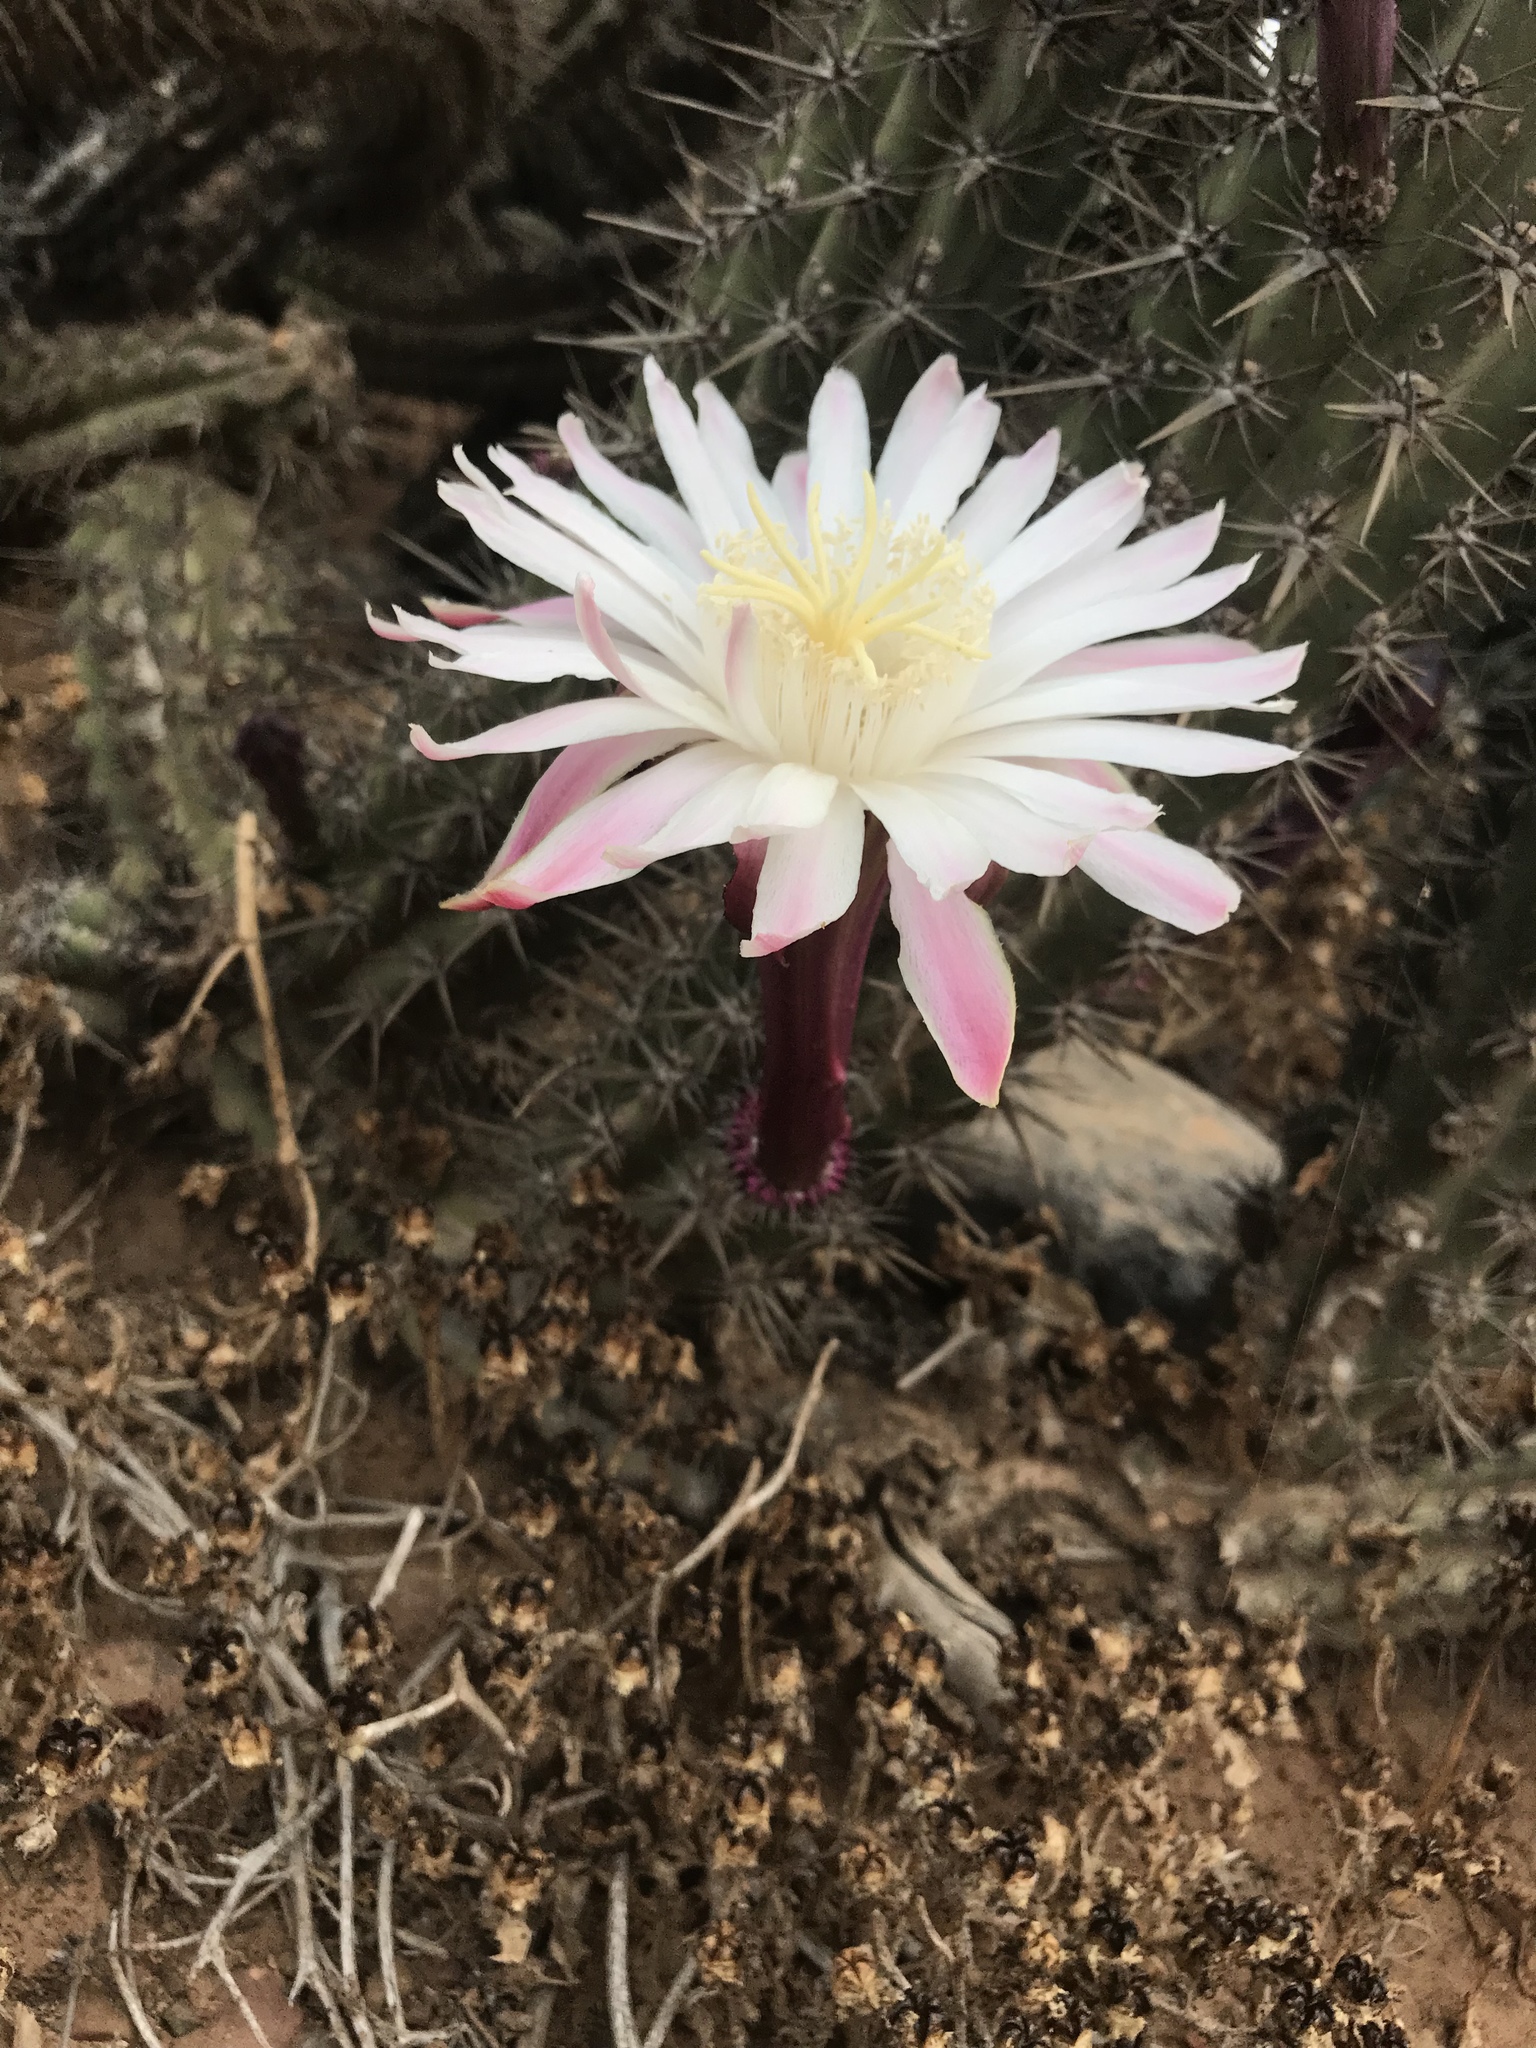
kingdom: Plantae
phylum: Tracheophyta
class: Magnoliopsida
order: Caryophyllales
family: Cactaceae
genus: Stenocereus
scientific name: Stenocereus gummosus
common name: Dagger cactus
